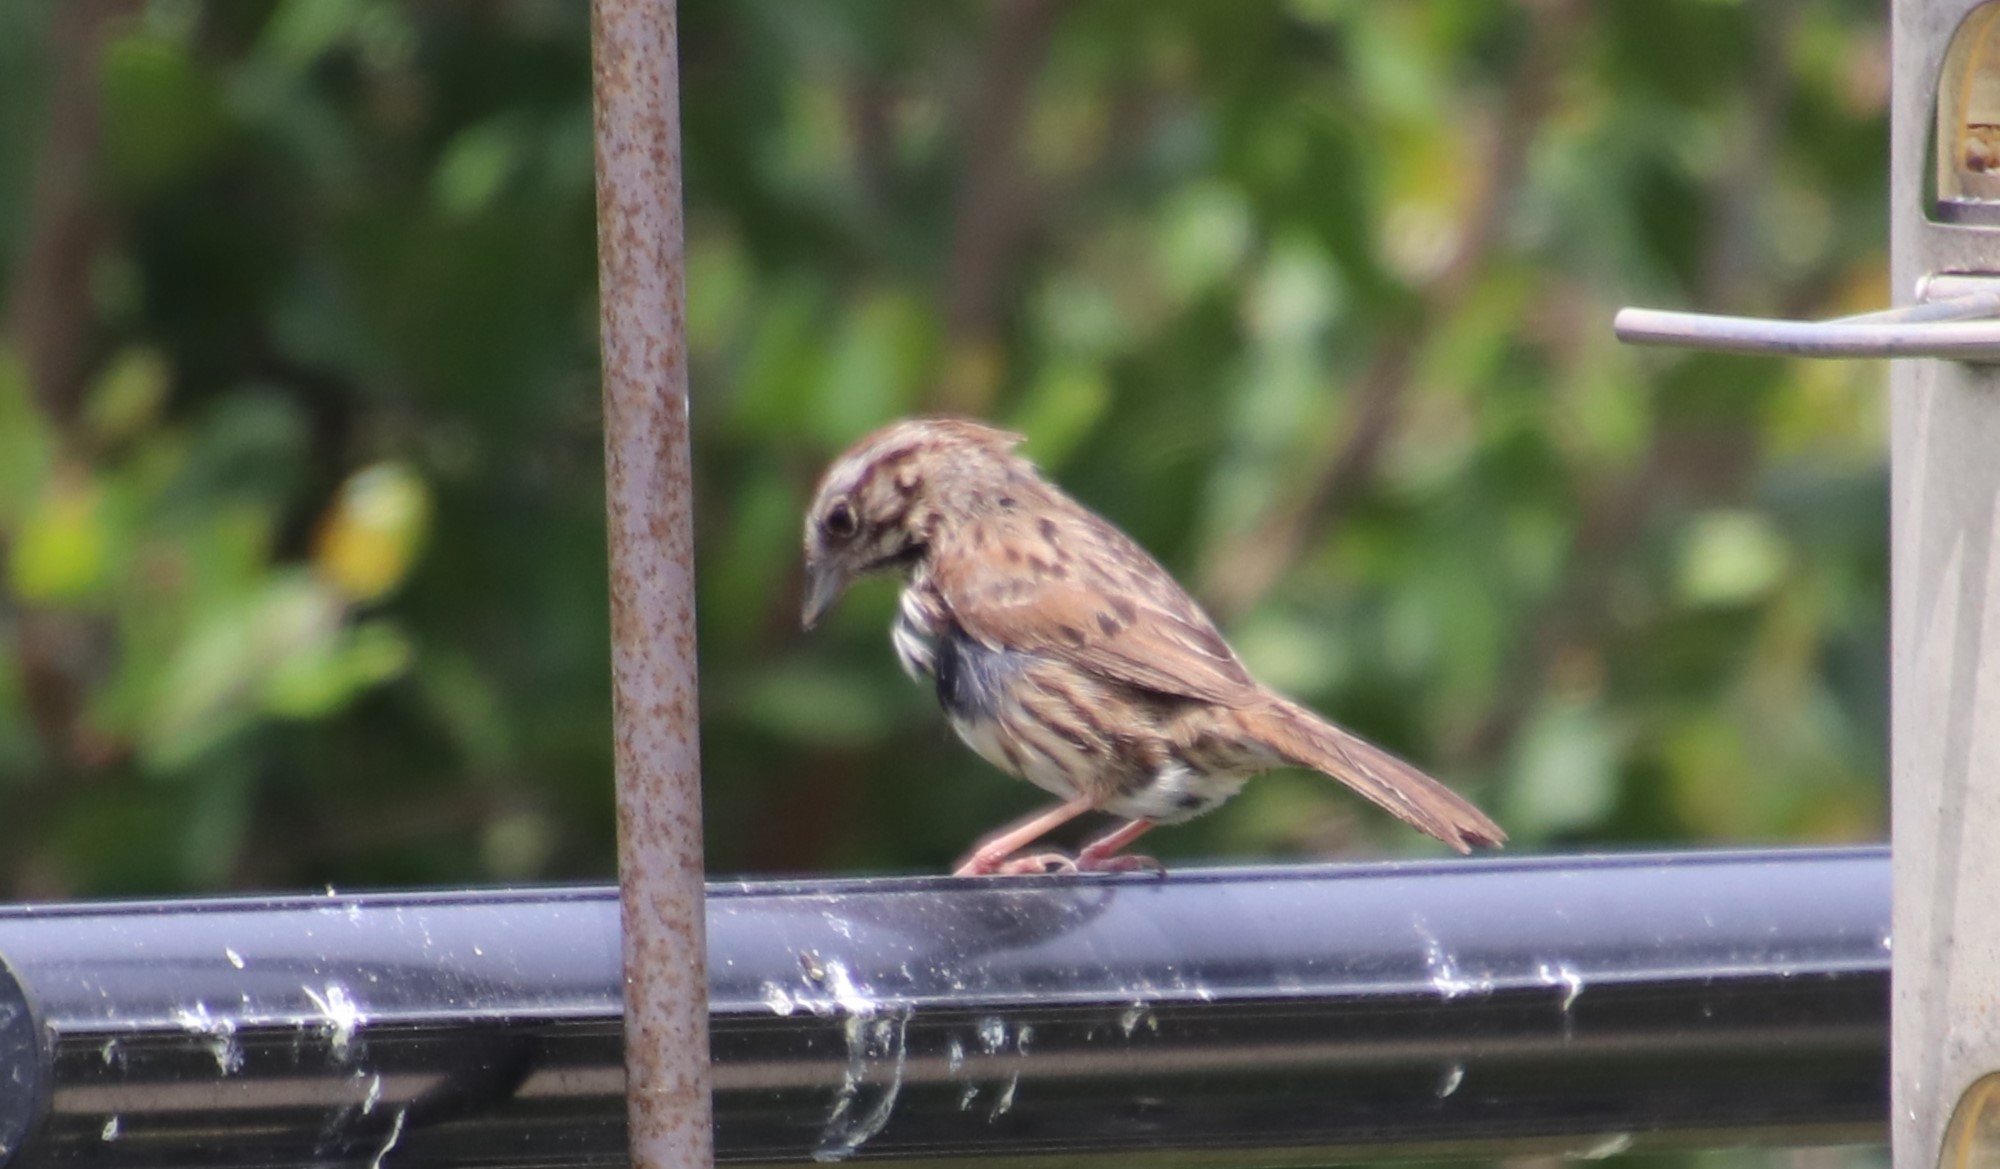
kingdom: Animalia
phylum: Chordata
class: Aves
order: Passeriformes
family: Passerellidae
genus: Melospiza
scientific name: Melospiza melodia
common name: Song sparrow
